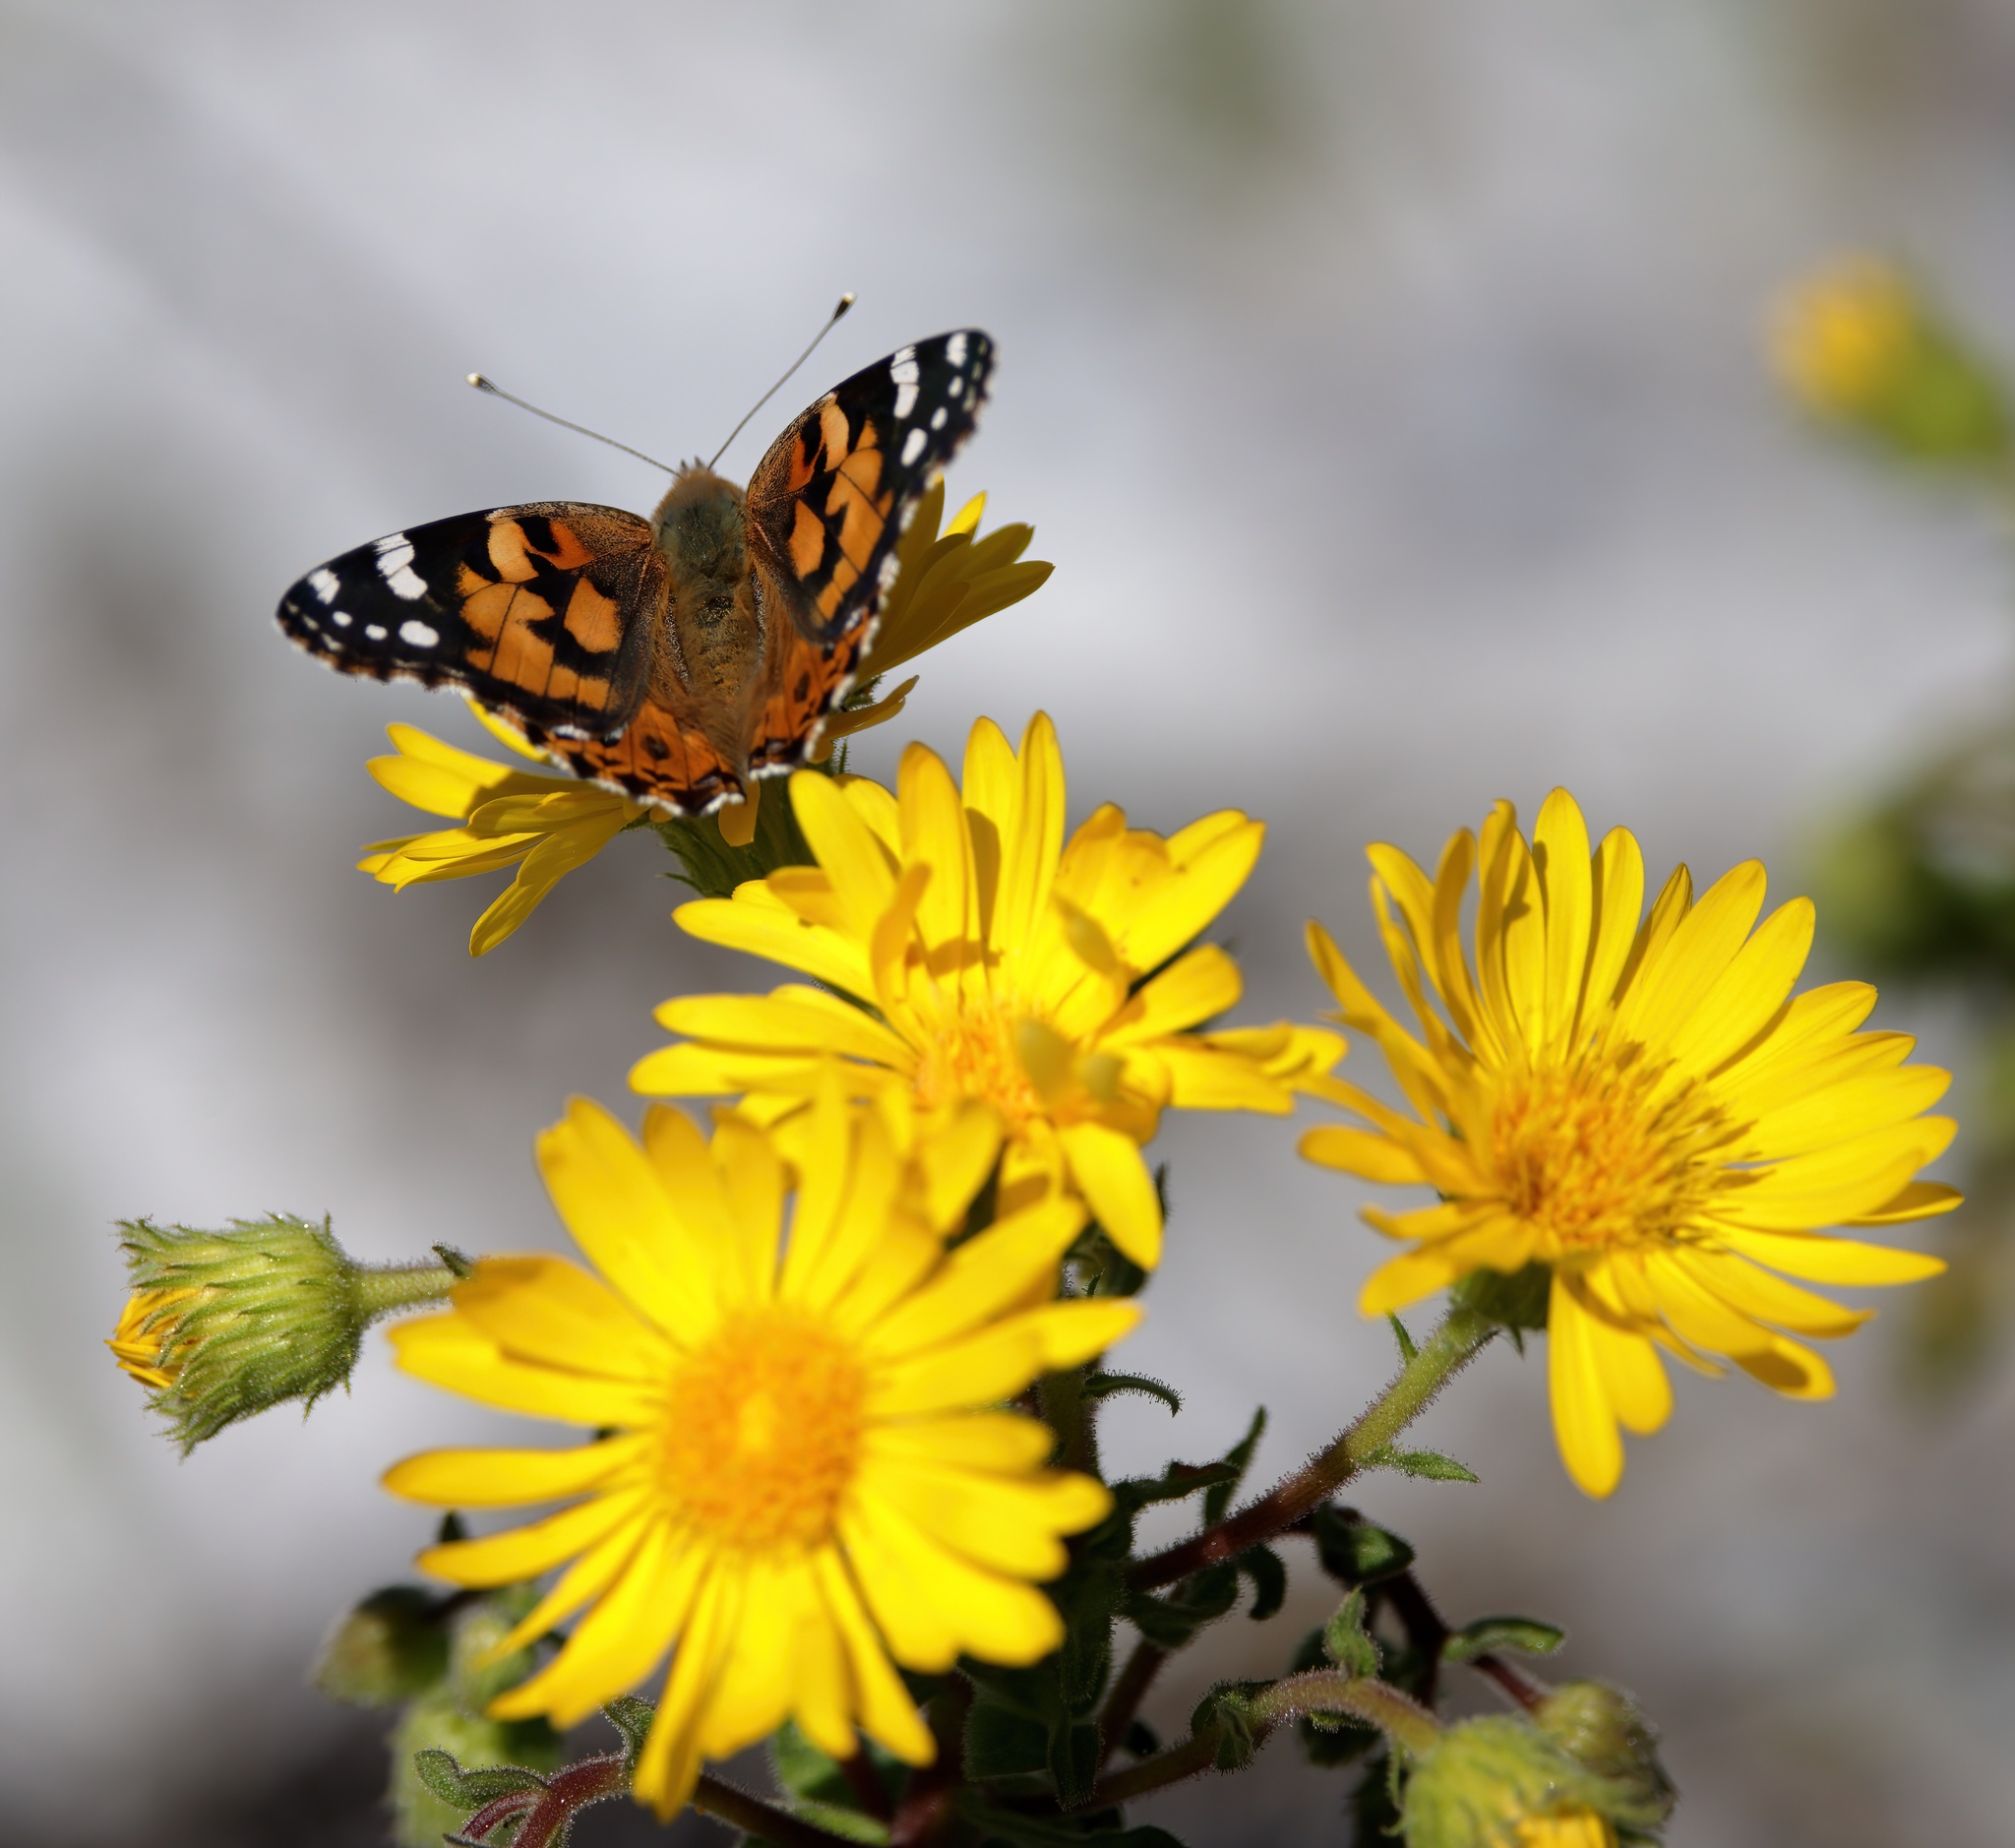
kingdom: Animalia
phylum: Arthropoda
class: Insecta
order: Lepidoptera
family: Nymphalidae
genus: Vanessa
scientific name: Vanessa cardui
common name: Painted lady
